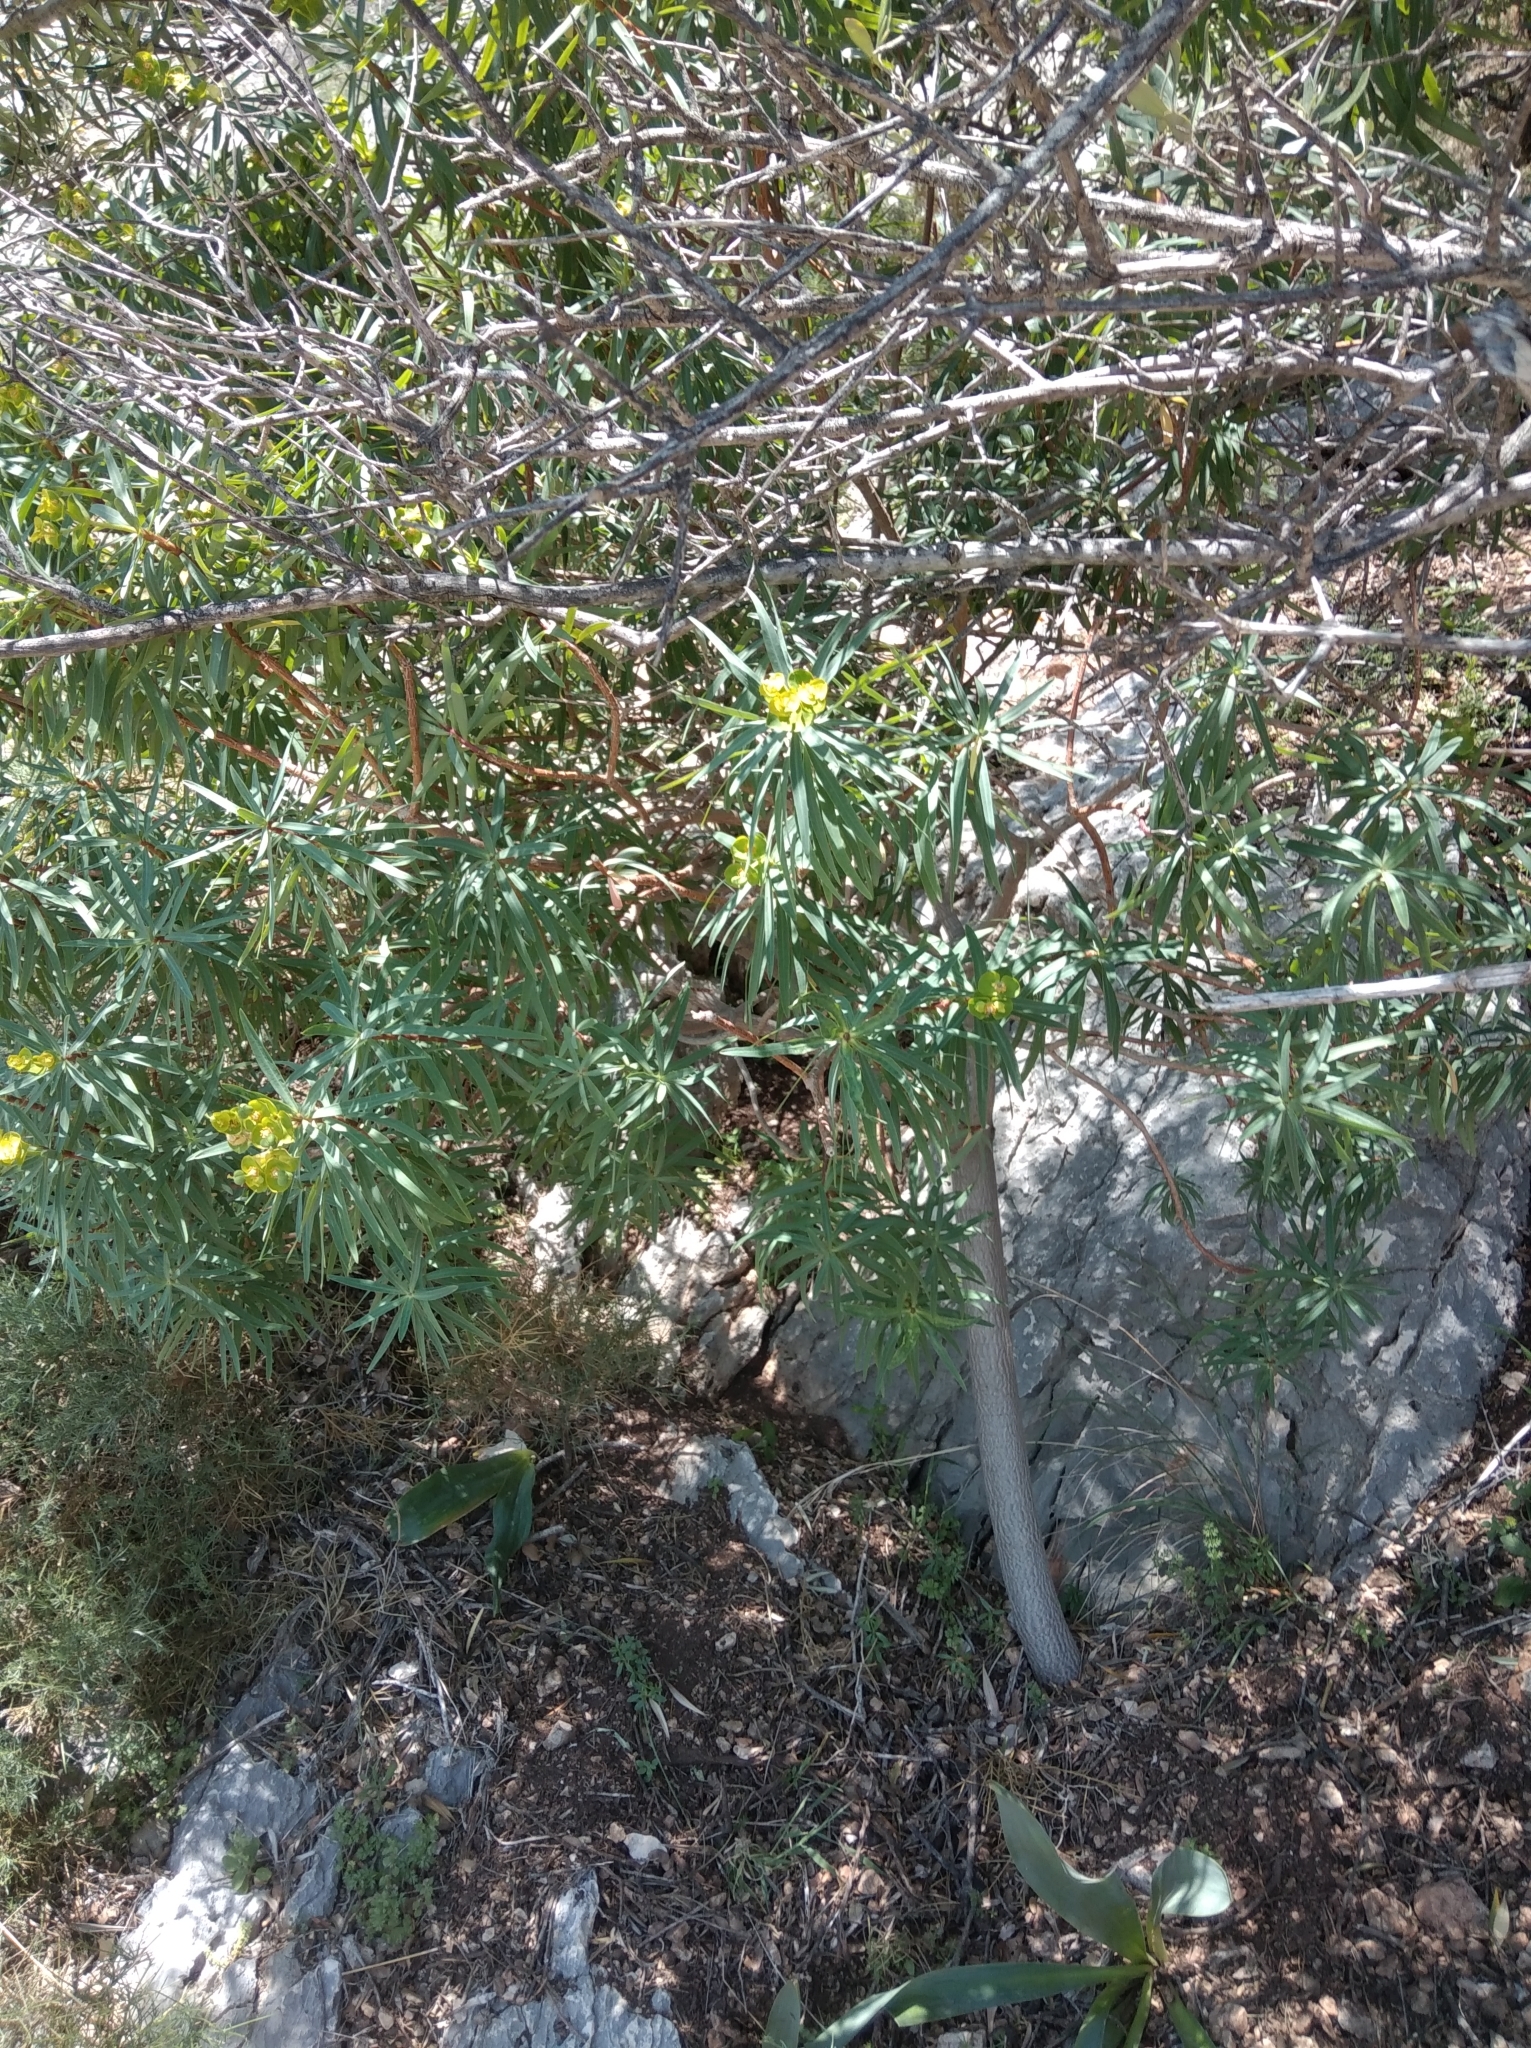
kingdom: Plantae
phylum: Tracheophyta
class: Magnoliopsida
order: Malpighiales
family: Euphorbiaceae
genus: Euphorbia
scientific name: Euphorbia dendroides
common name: Tree spurge
